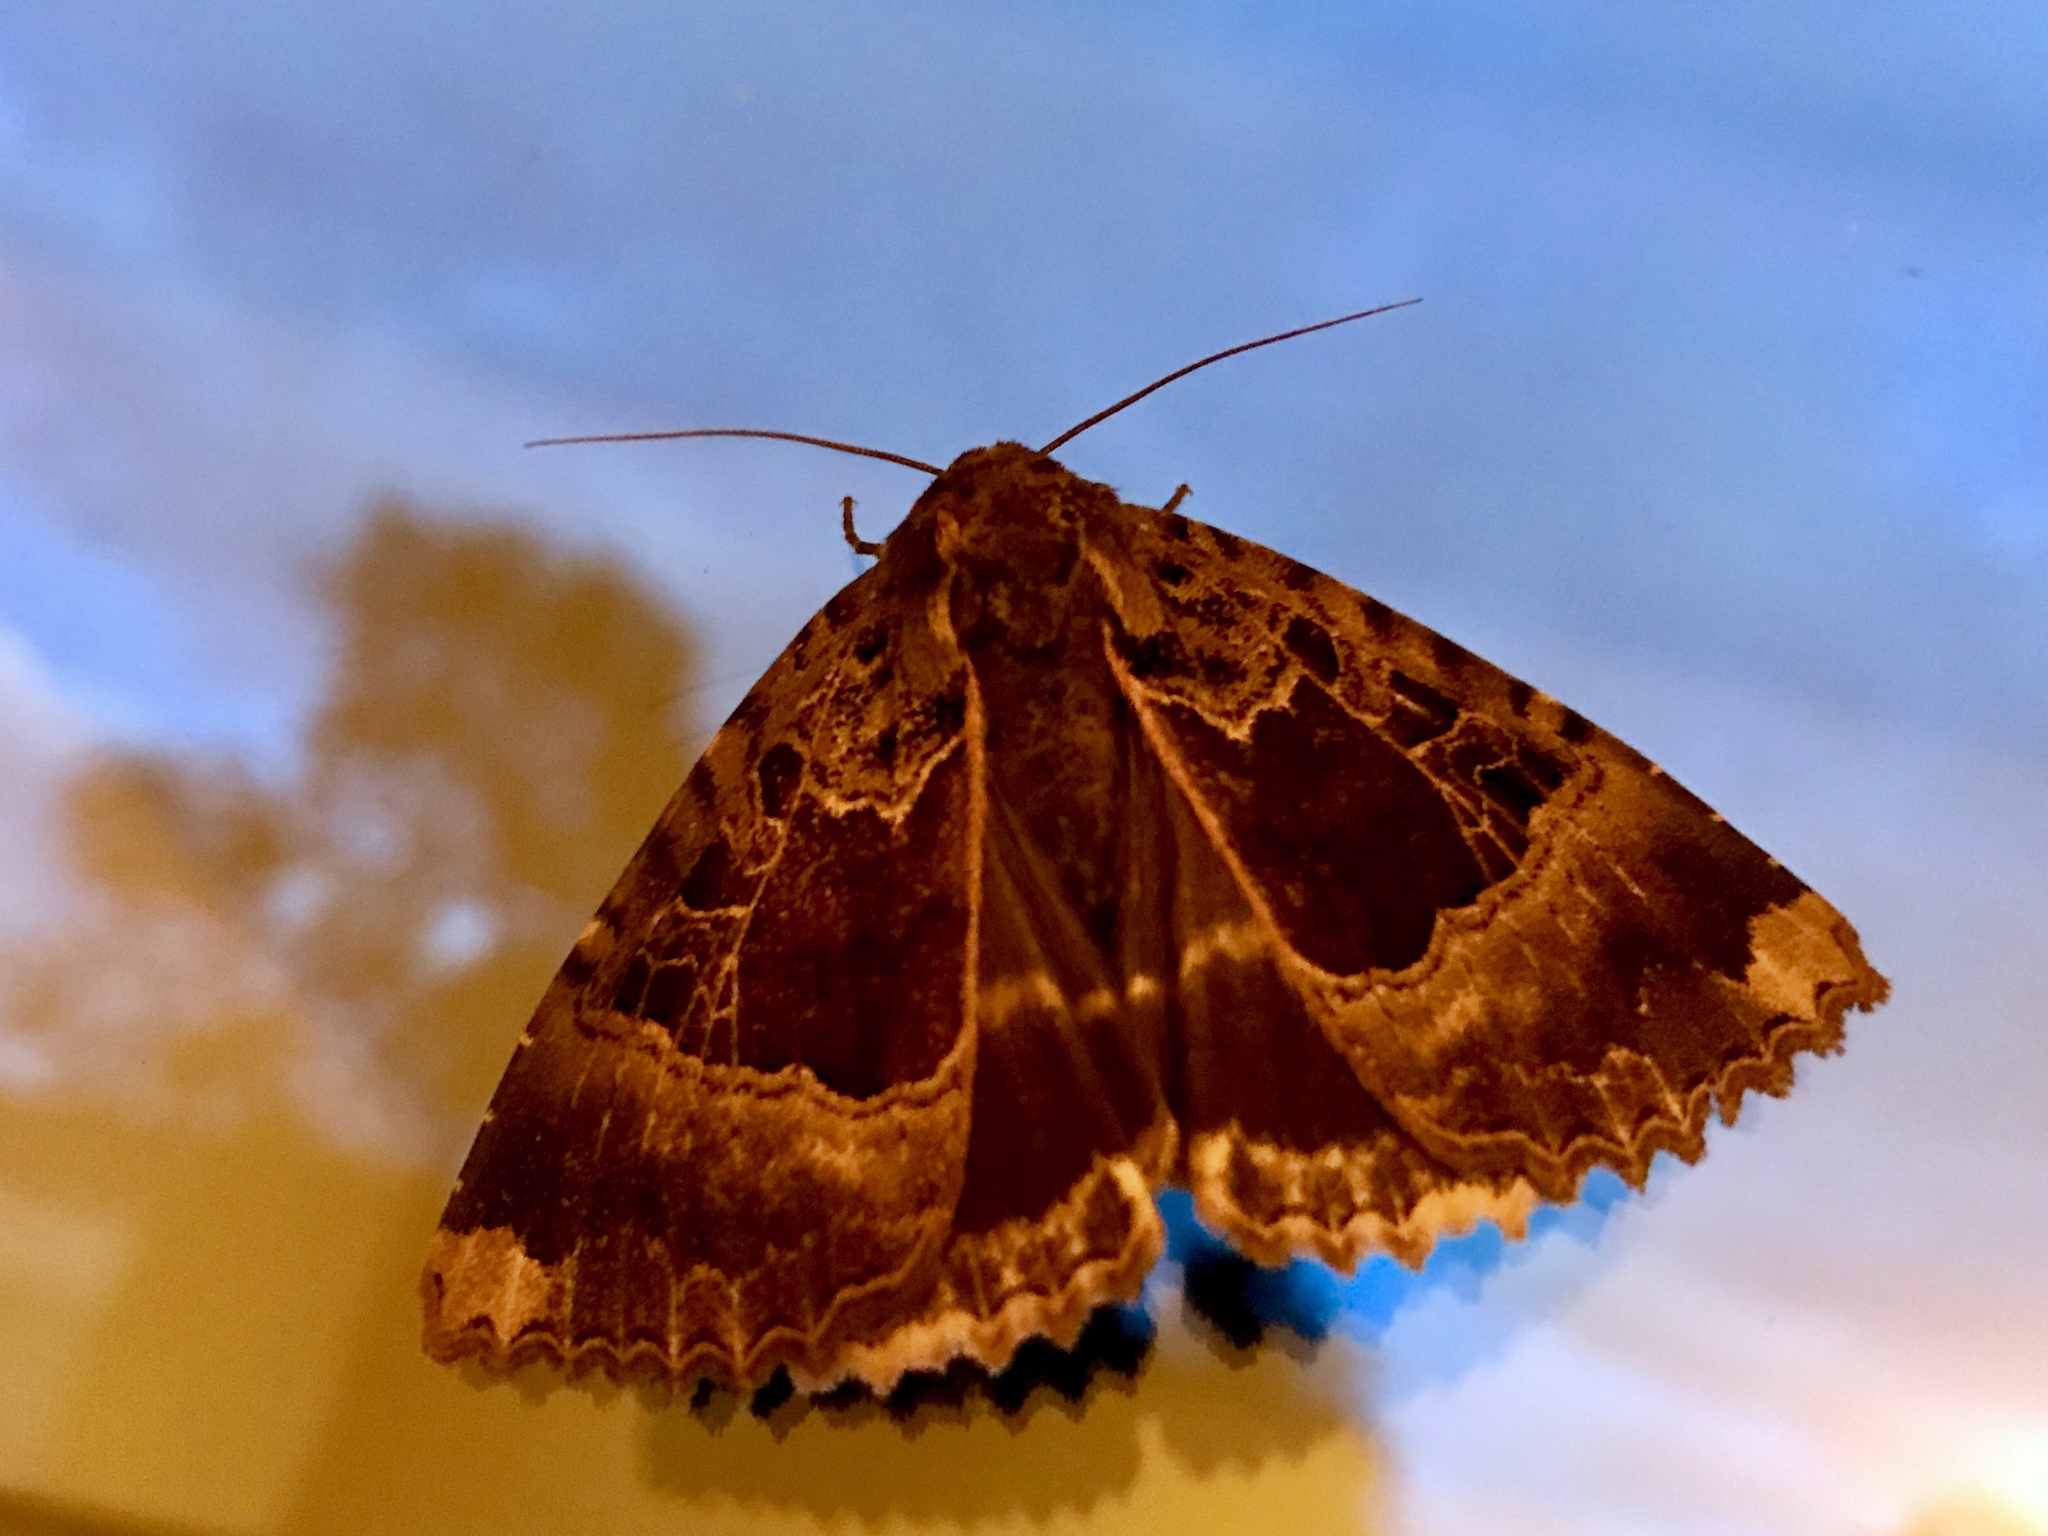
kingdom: Animalia
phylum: Arthropoda
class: Insecta
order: Lepidoptera
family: Noctuidae
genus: Mormo
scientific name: Mormo maura
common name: Old lady
